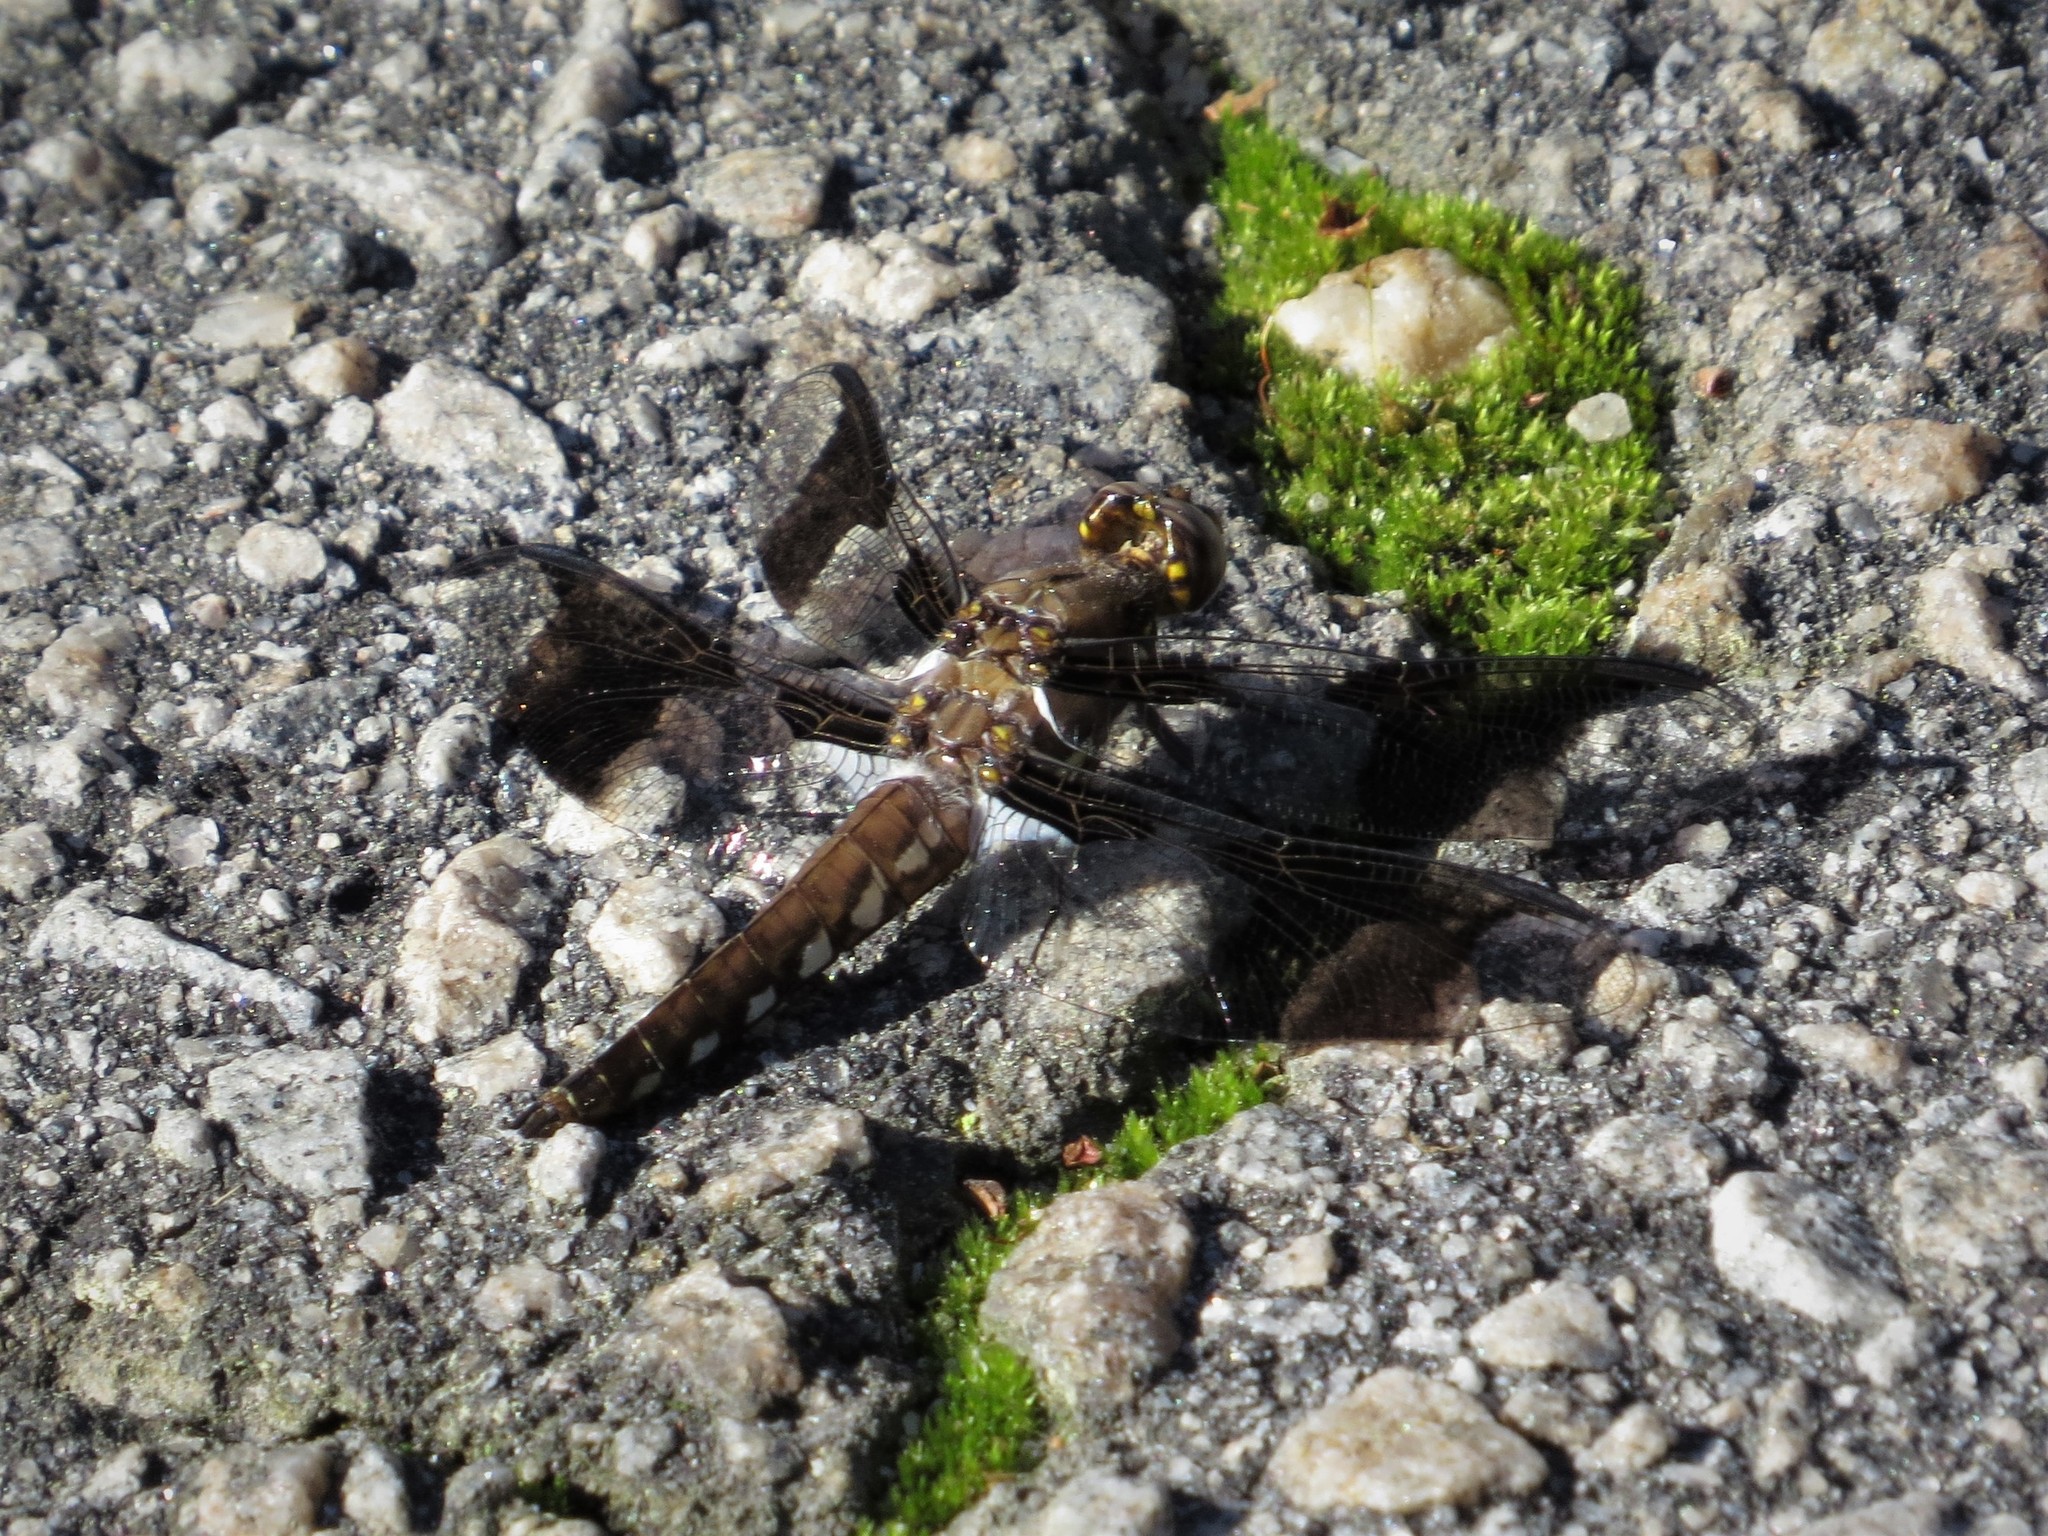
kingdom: Animalia
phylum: Arthropoda
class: Insecta
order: Odonata
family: Libellulidae
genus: Plathemis
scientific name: Plathemis lydia
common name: Common whitetail
